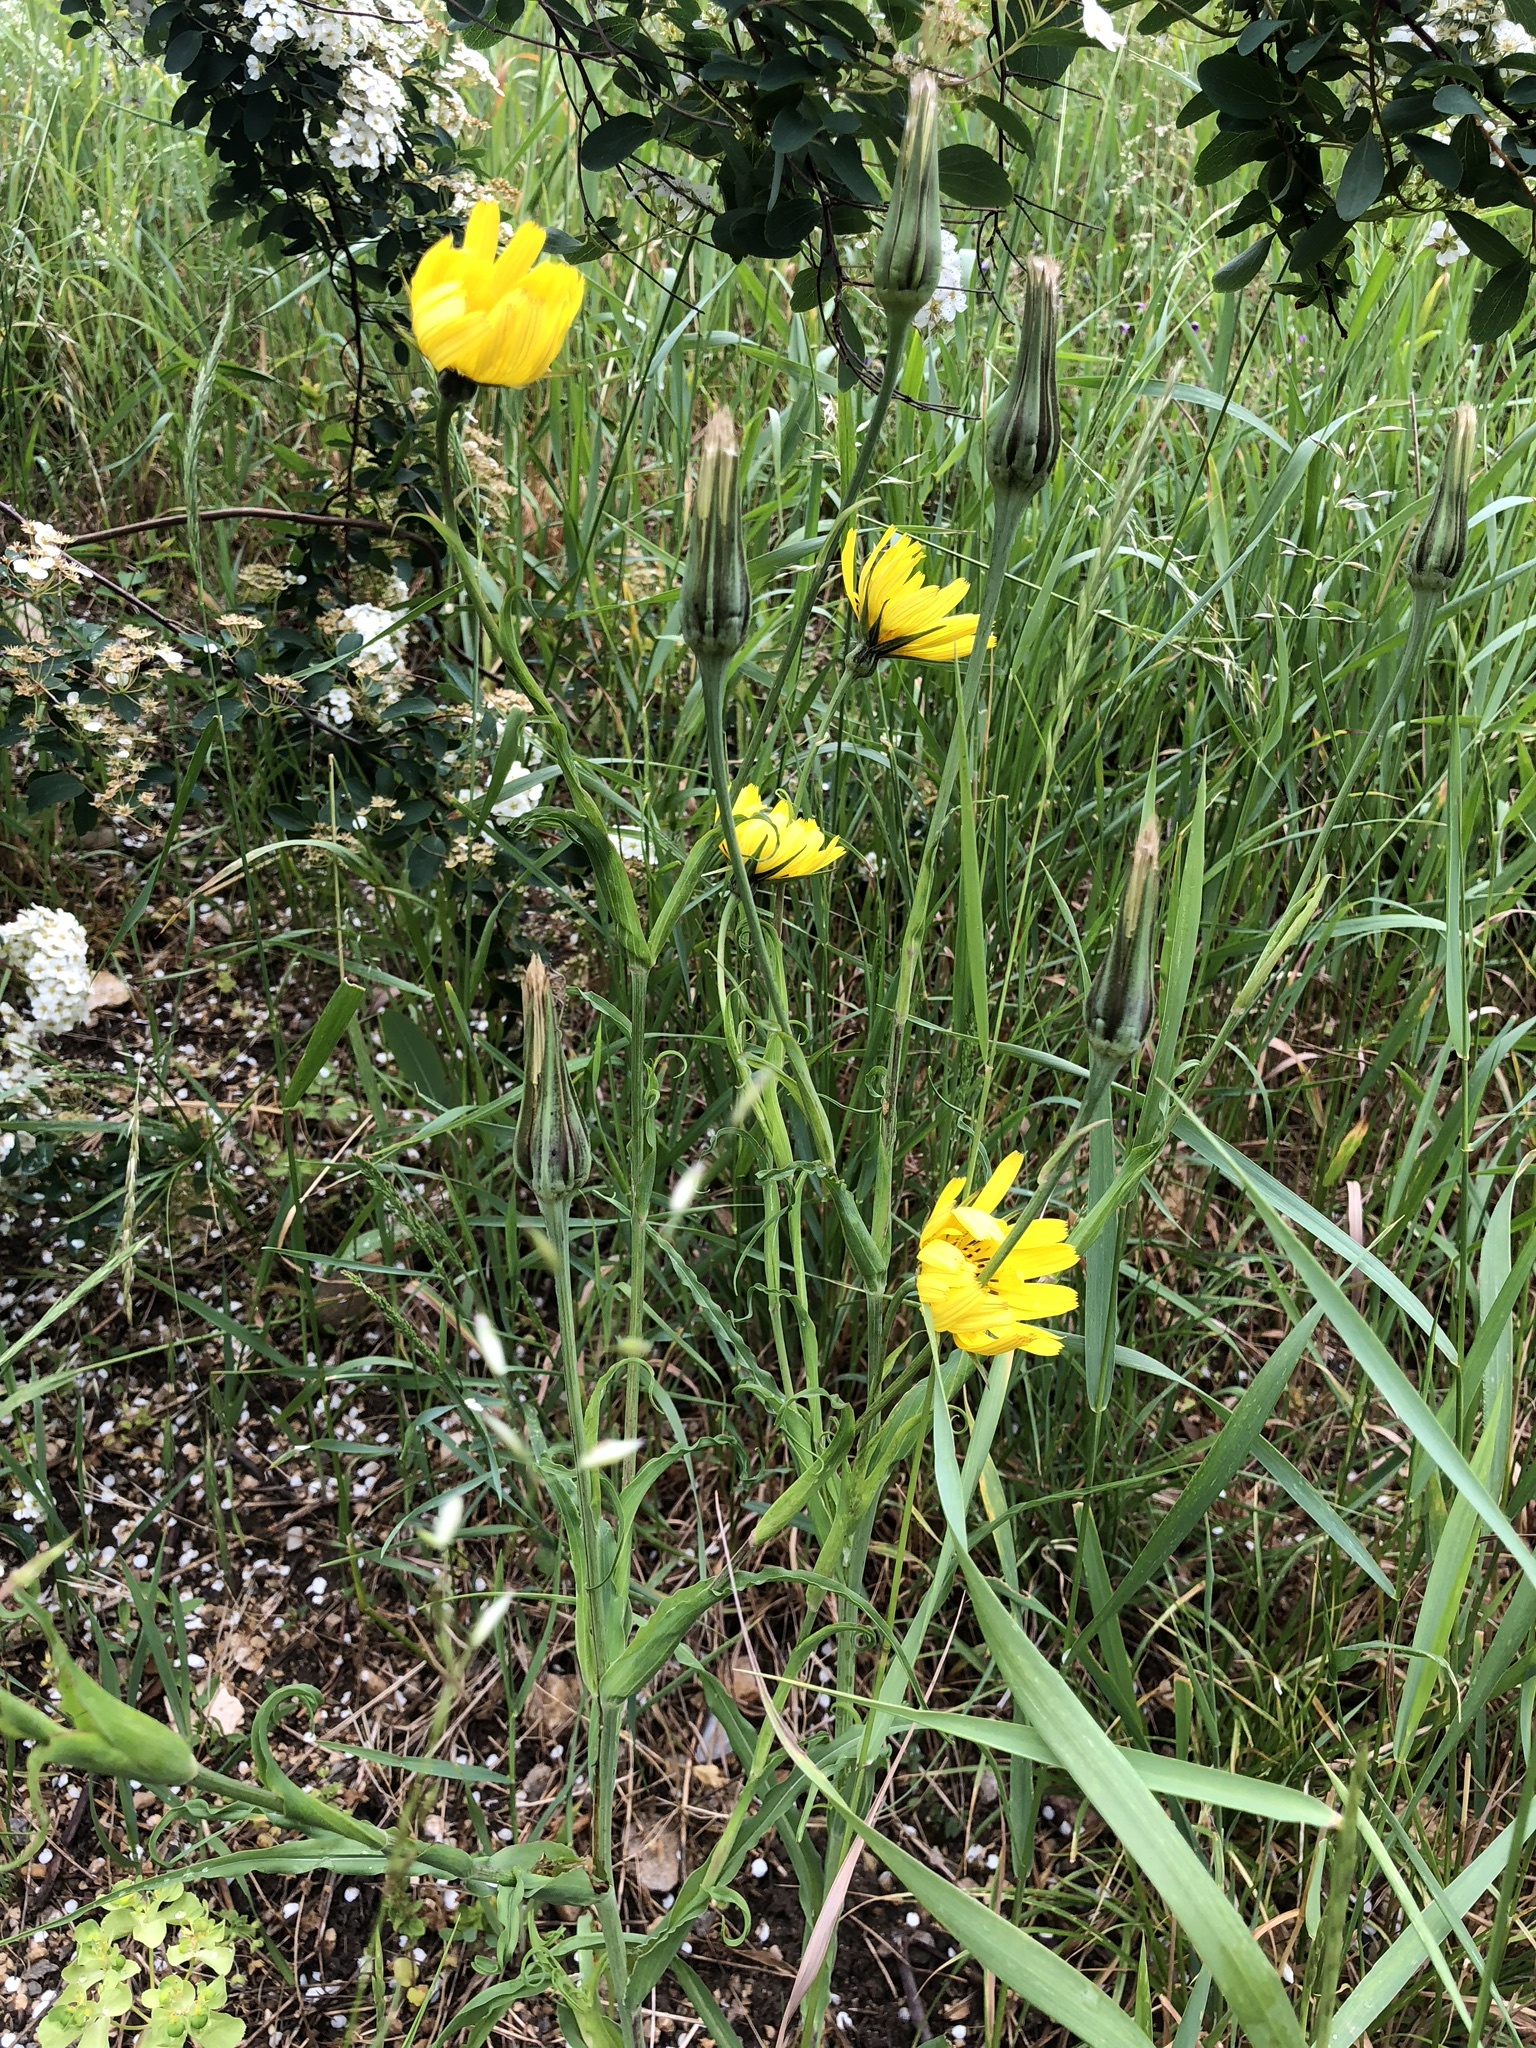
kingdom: Plantae
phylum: Tracheophyta
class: Magnoliopsida
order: Asterales
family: Asteraceae
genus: Tragopogon
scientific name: Tragopogon pratensis
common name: Goat's-beard
